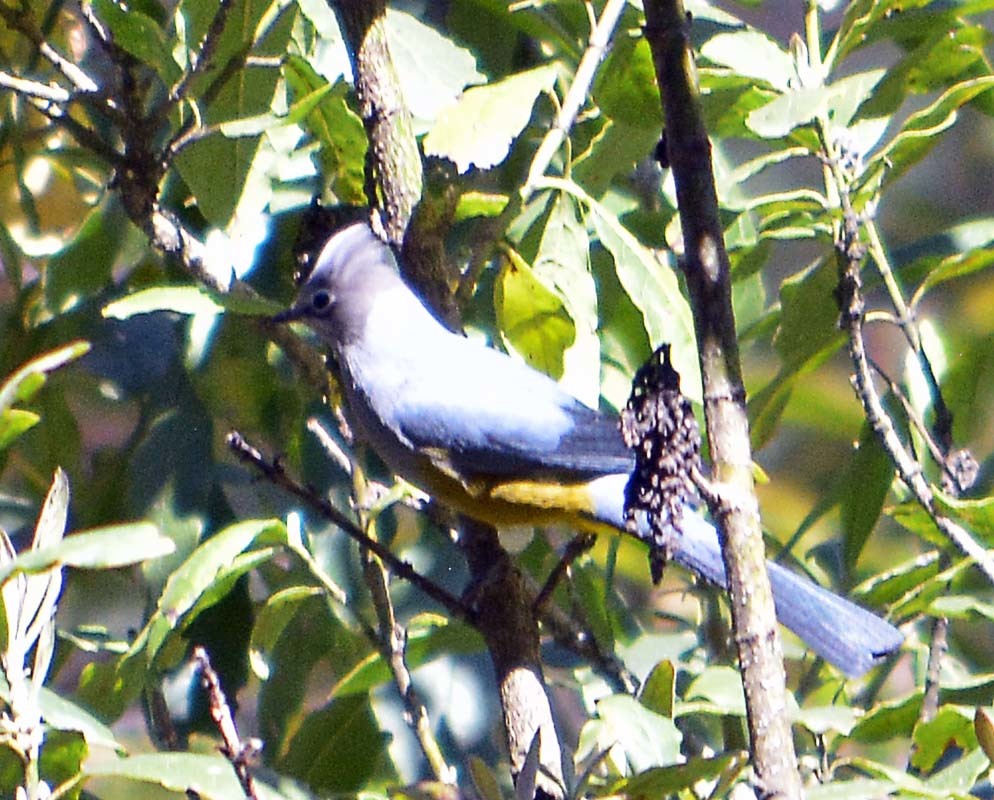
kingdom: Animalia
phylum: Chordata
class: Aves
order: Passeriformes
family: Ptilogonatidae
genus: Ptilogonys
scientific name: Ptilogonys cinereus
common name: Gray silky-flycatcher
